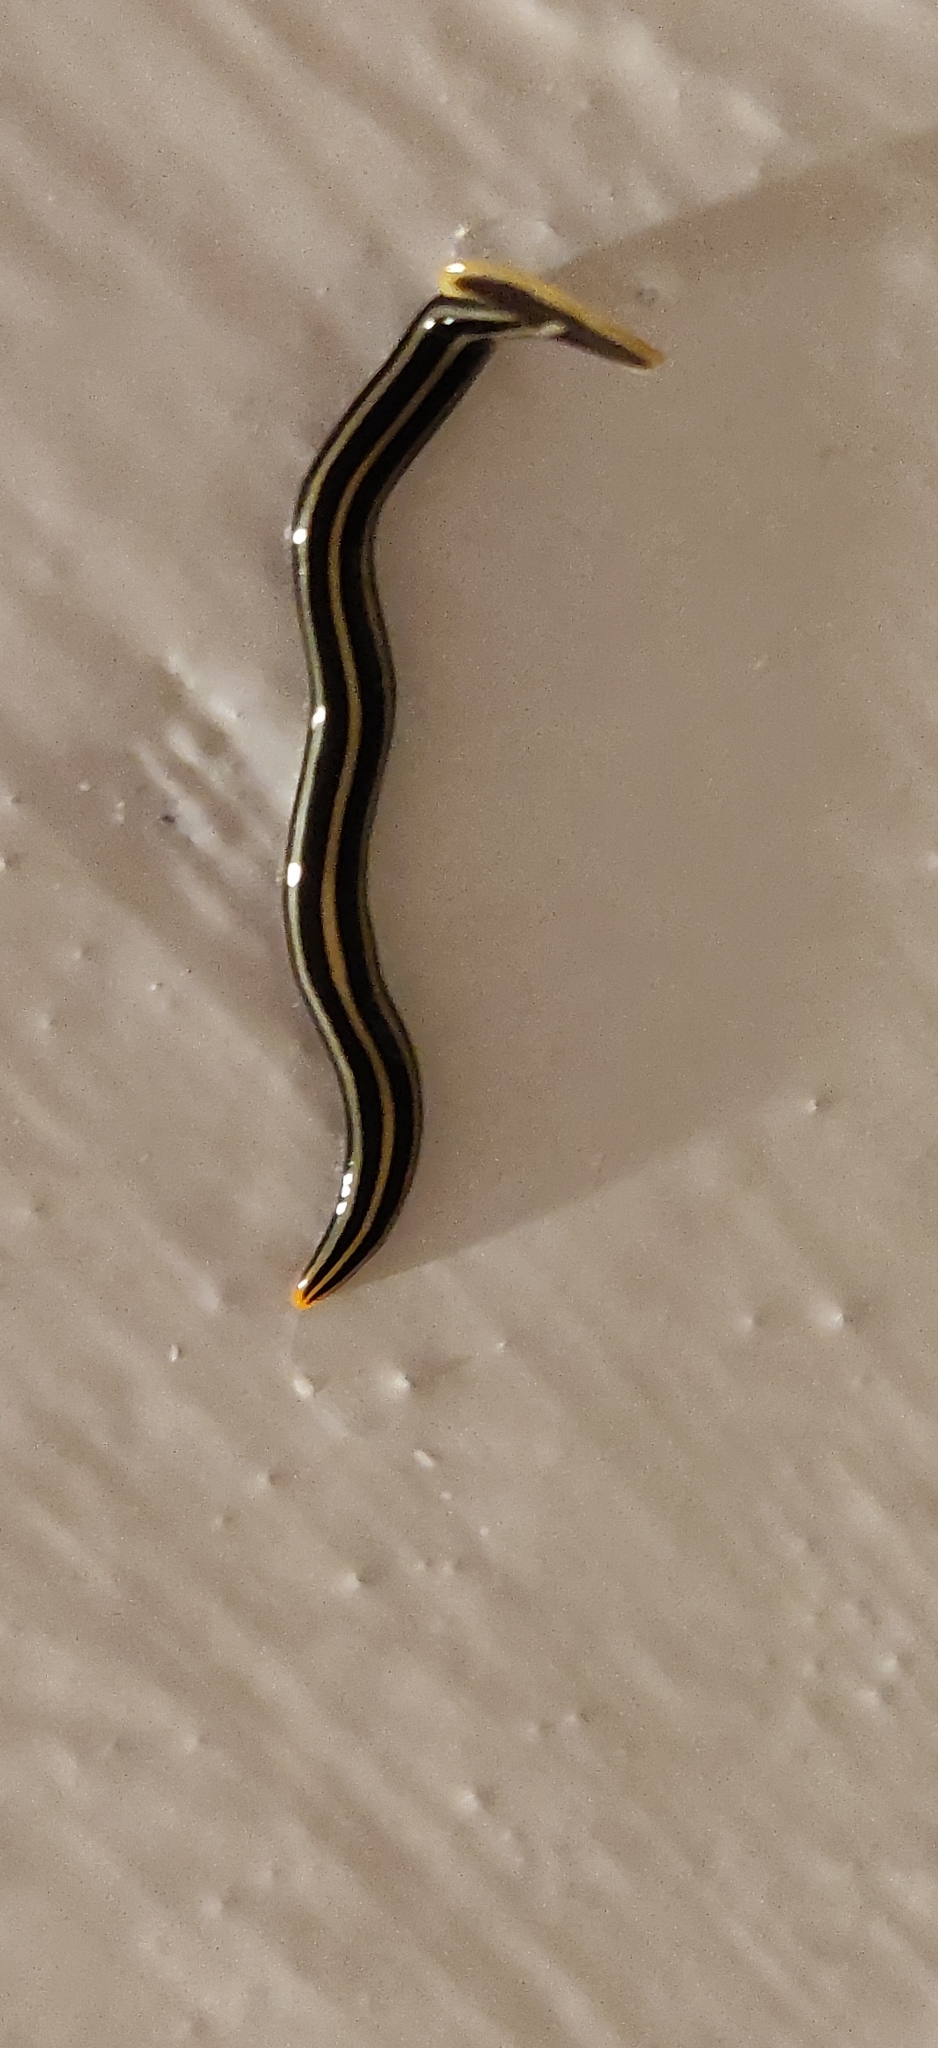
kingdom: Animalia
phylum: Platyhelminthes
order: Tricladida
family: Geoplanidae
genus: Humbertium
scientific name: Humbertium proserpina
